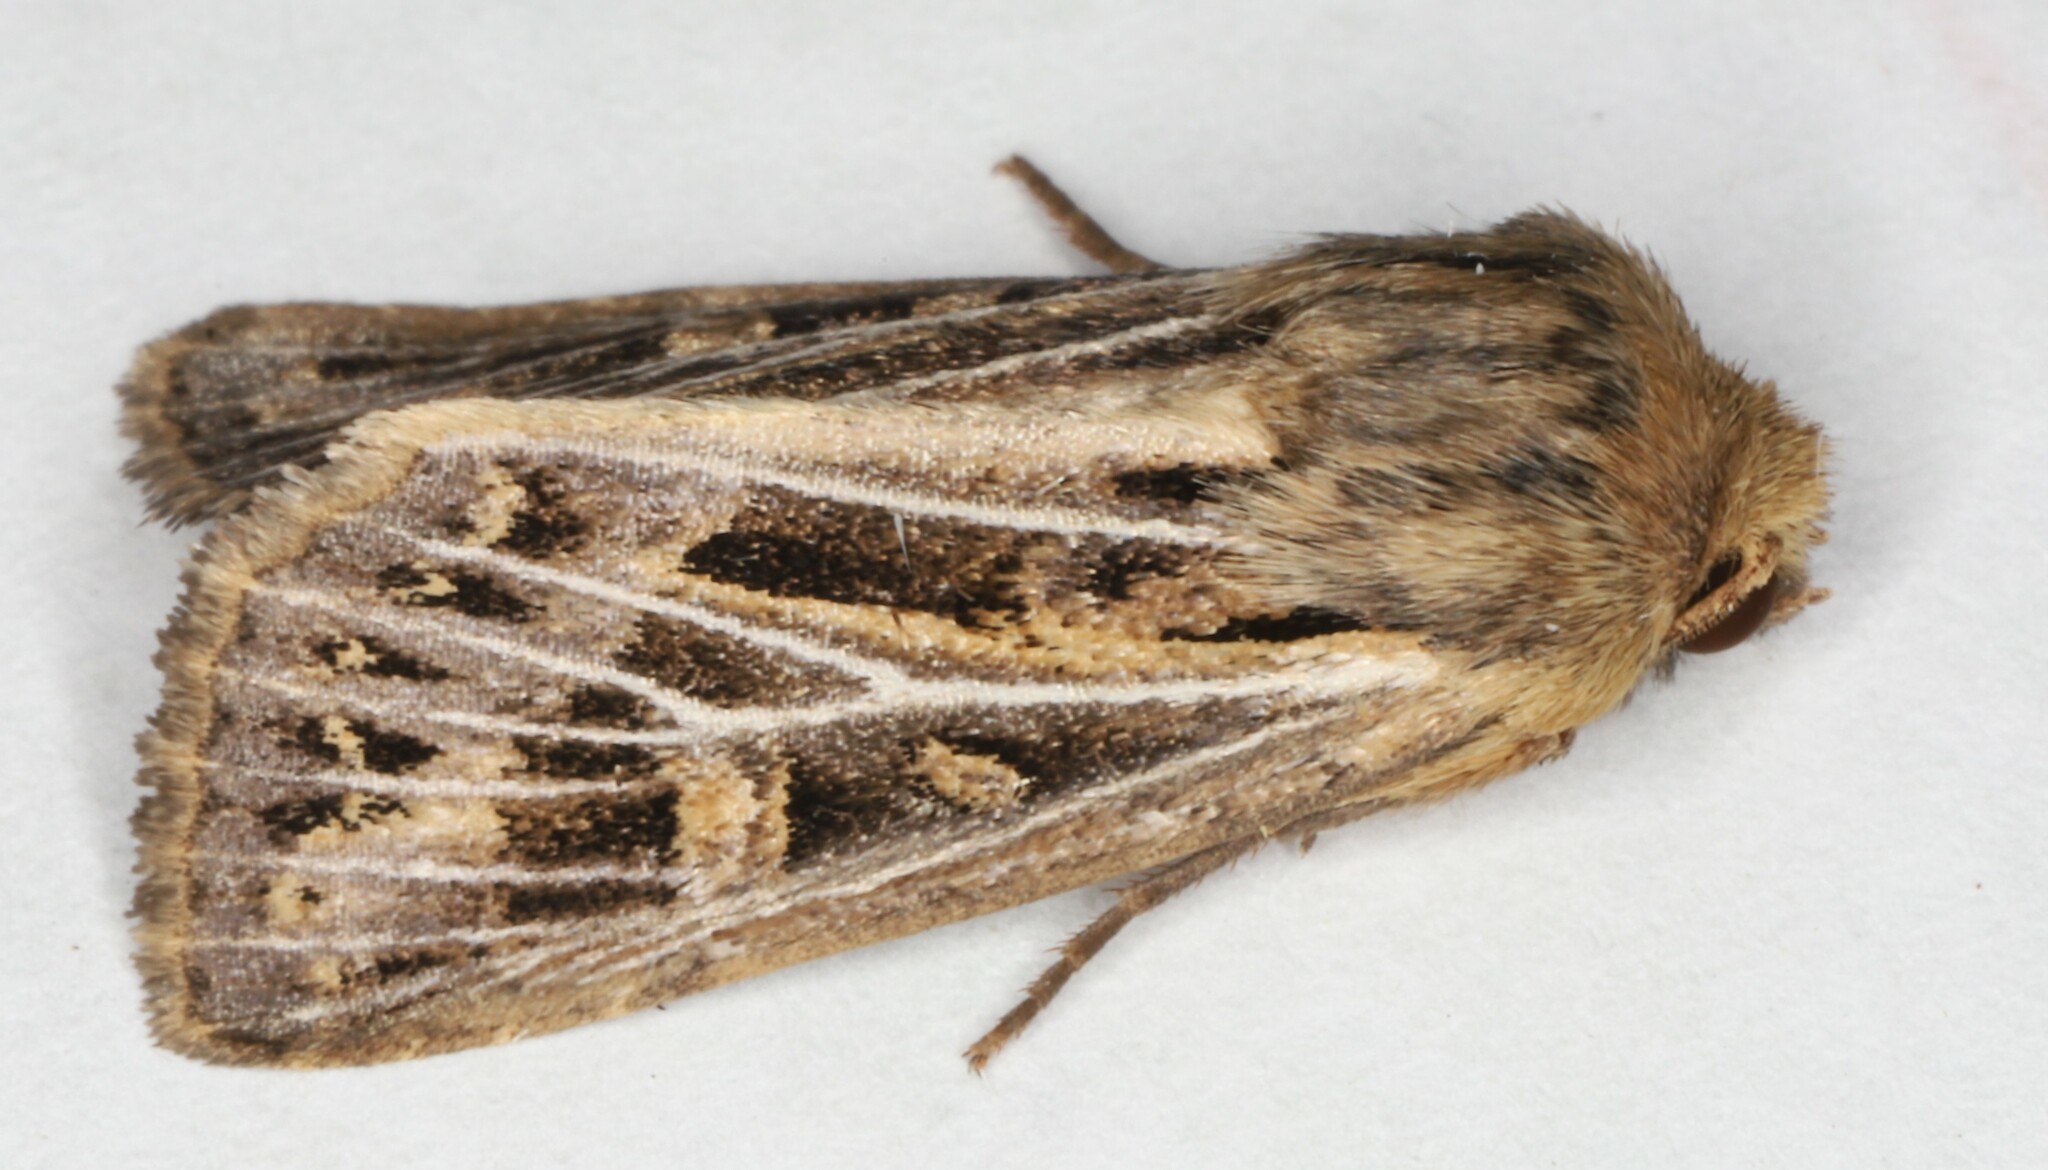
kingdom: Animalia
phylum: Arthropoda
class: Insecta
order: Lepidoptera
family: Noctuidae
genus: Feltia
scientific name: Feltia jaculifera
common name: Dingy cutworm moth
